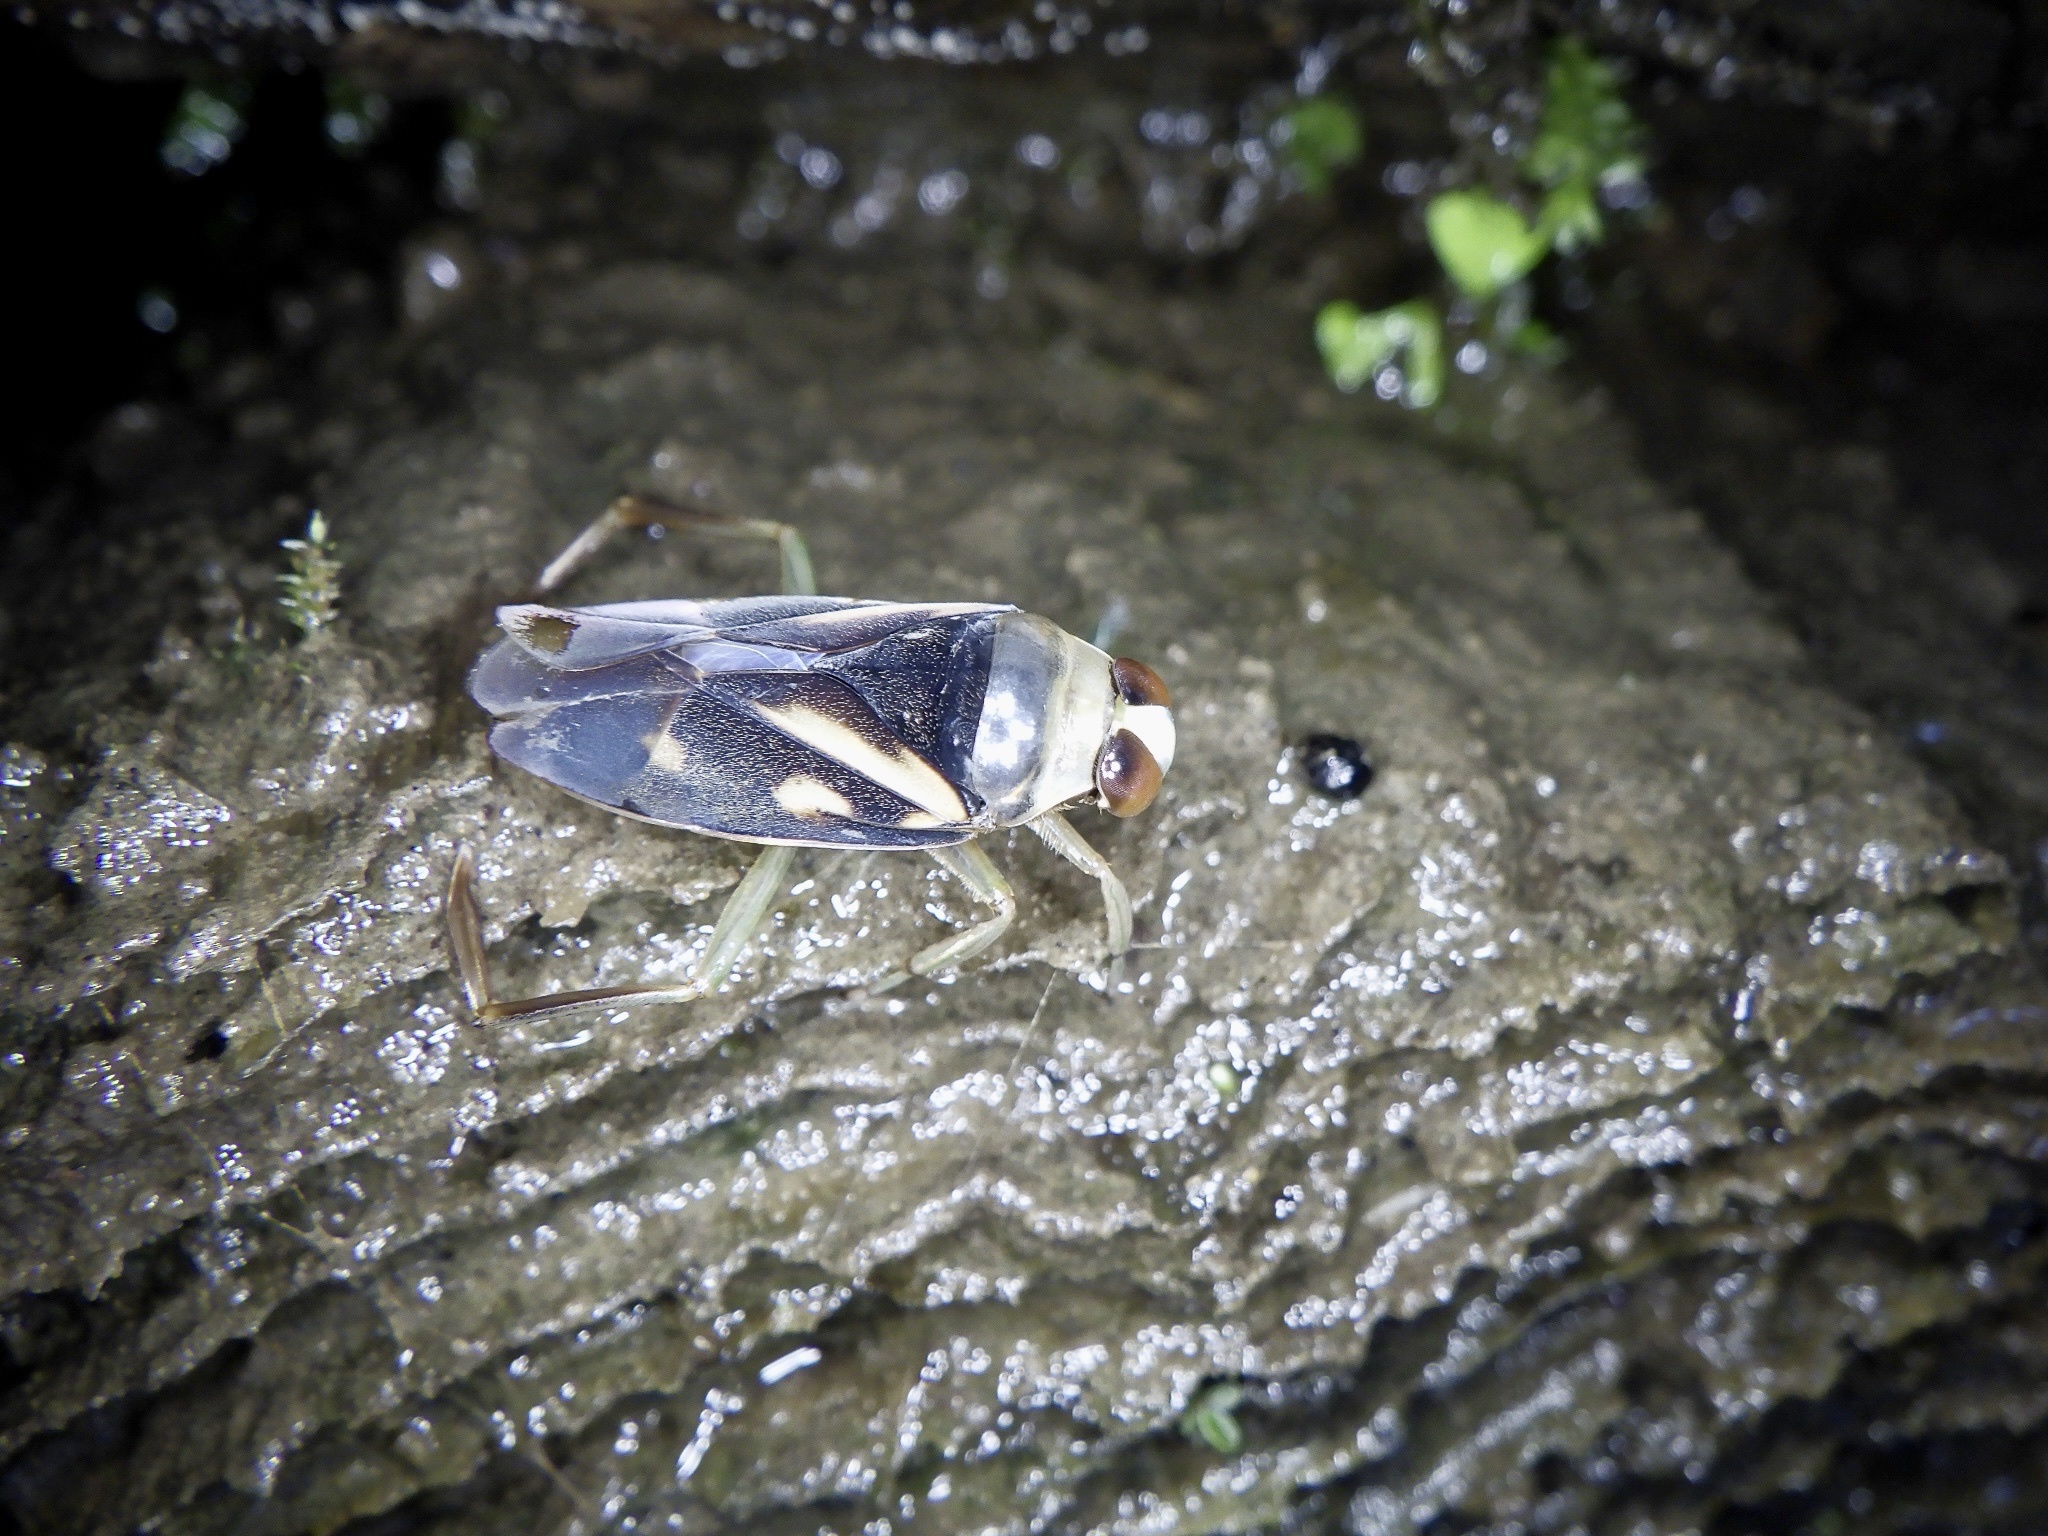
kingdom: Animalia
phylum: Arthropoda
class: Insecta
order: Hemiptera
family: Notonectidae
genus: Notonecta
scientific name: Notonecta triguttata
